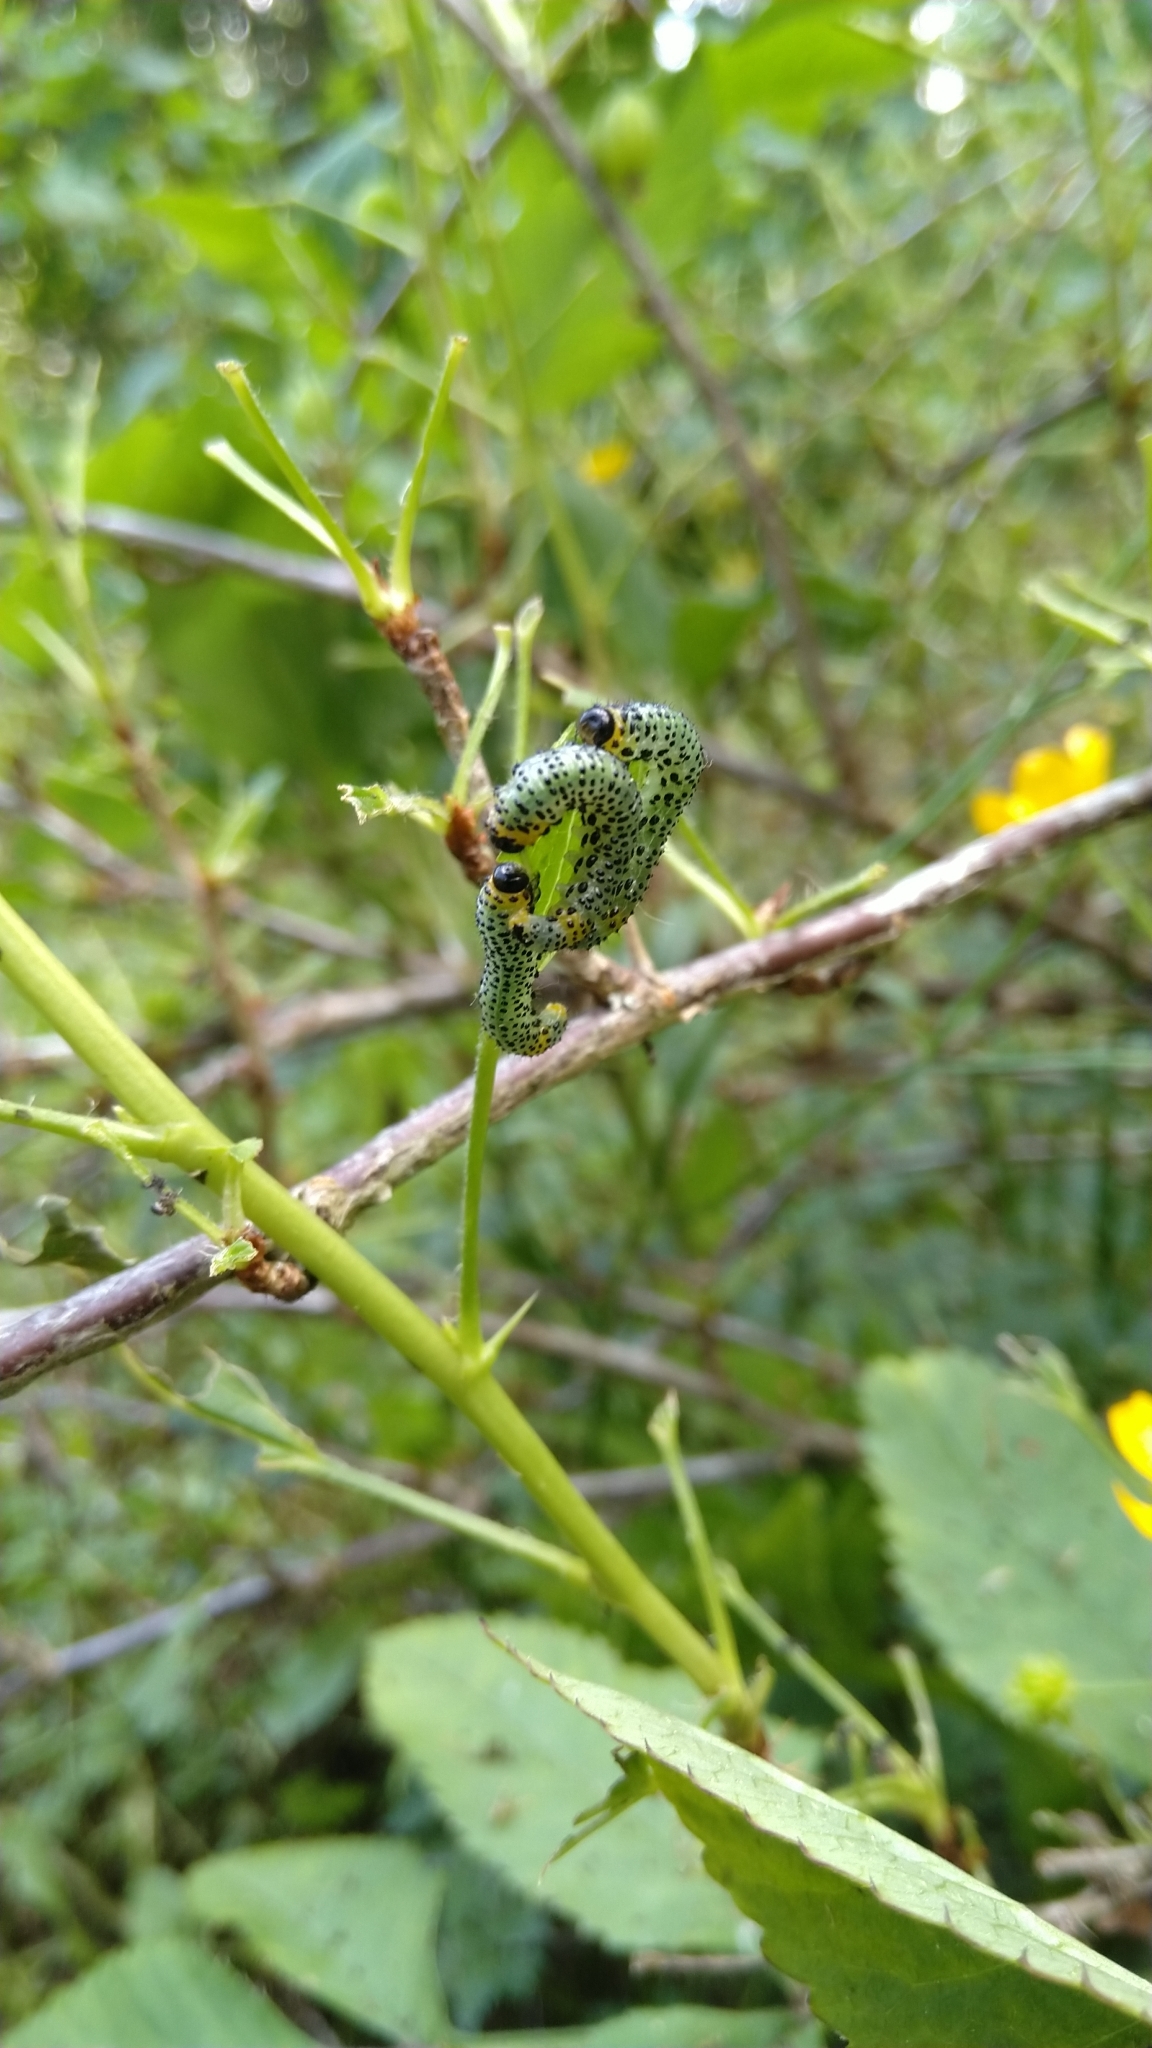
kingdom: Animalia
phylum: Arthropoda
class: Insecta
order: Hymenoptera
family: Tenthredinidae
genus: Nematus
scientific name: Nematus ribesii
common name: Imported currantworm
